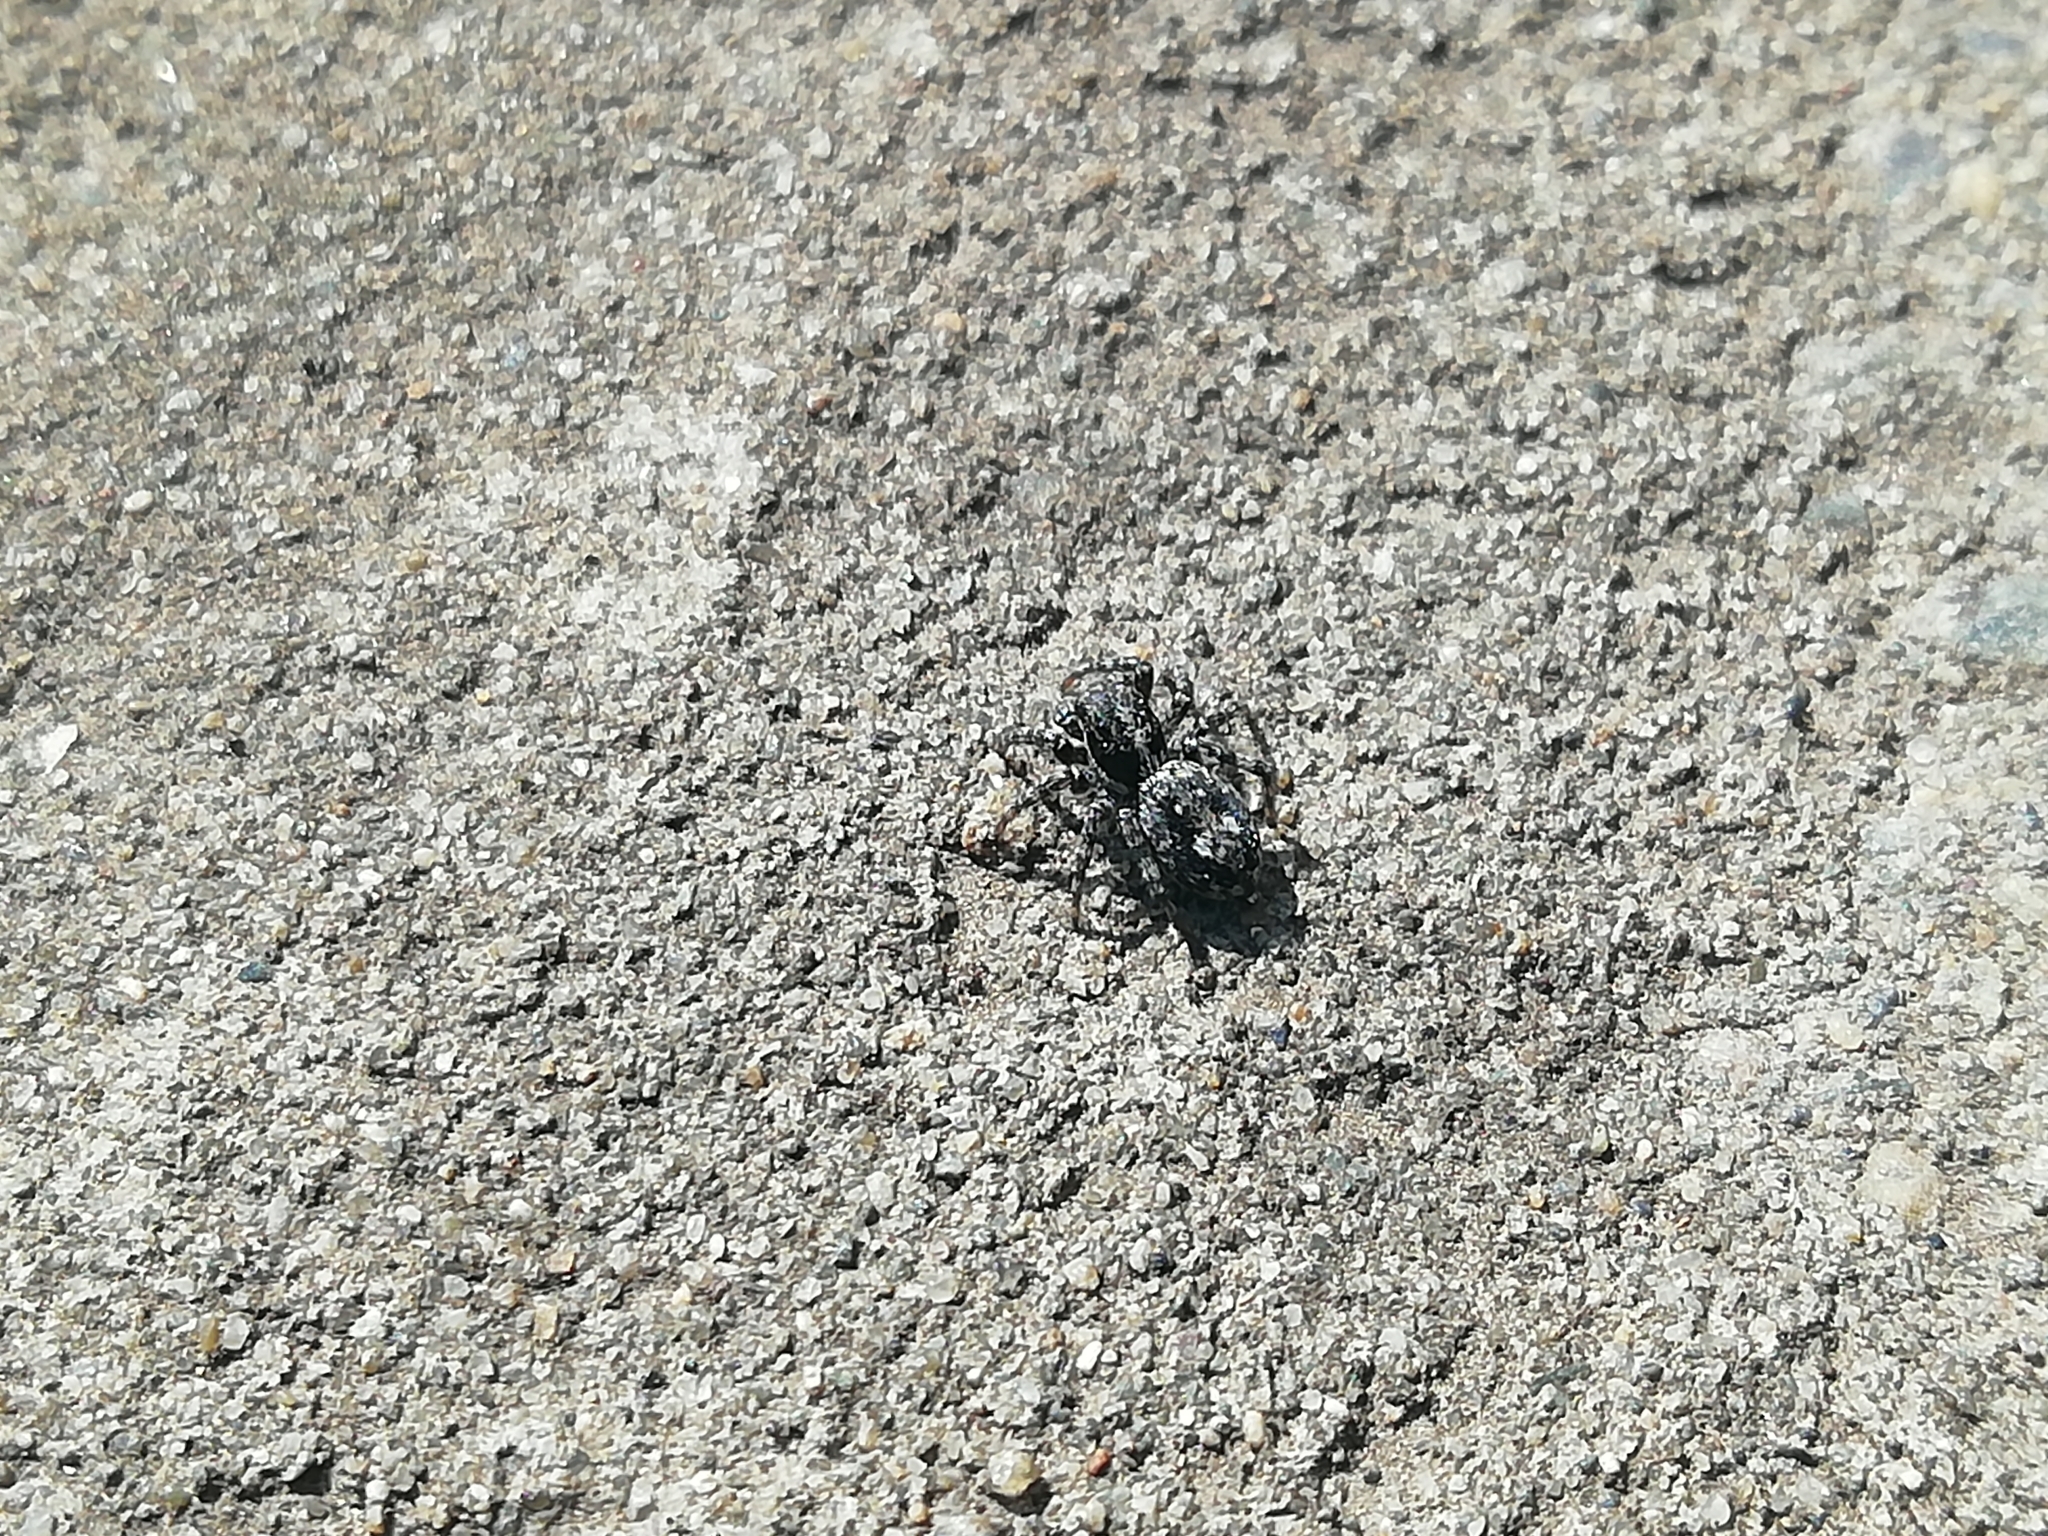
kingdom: Animalia
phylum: Arthropoda
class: Arachnida
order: Araneae
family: Salticidae
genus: Attulus
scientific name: Attulus terebratus
